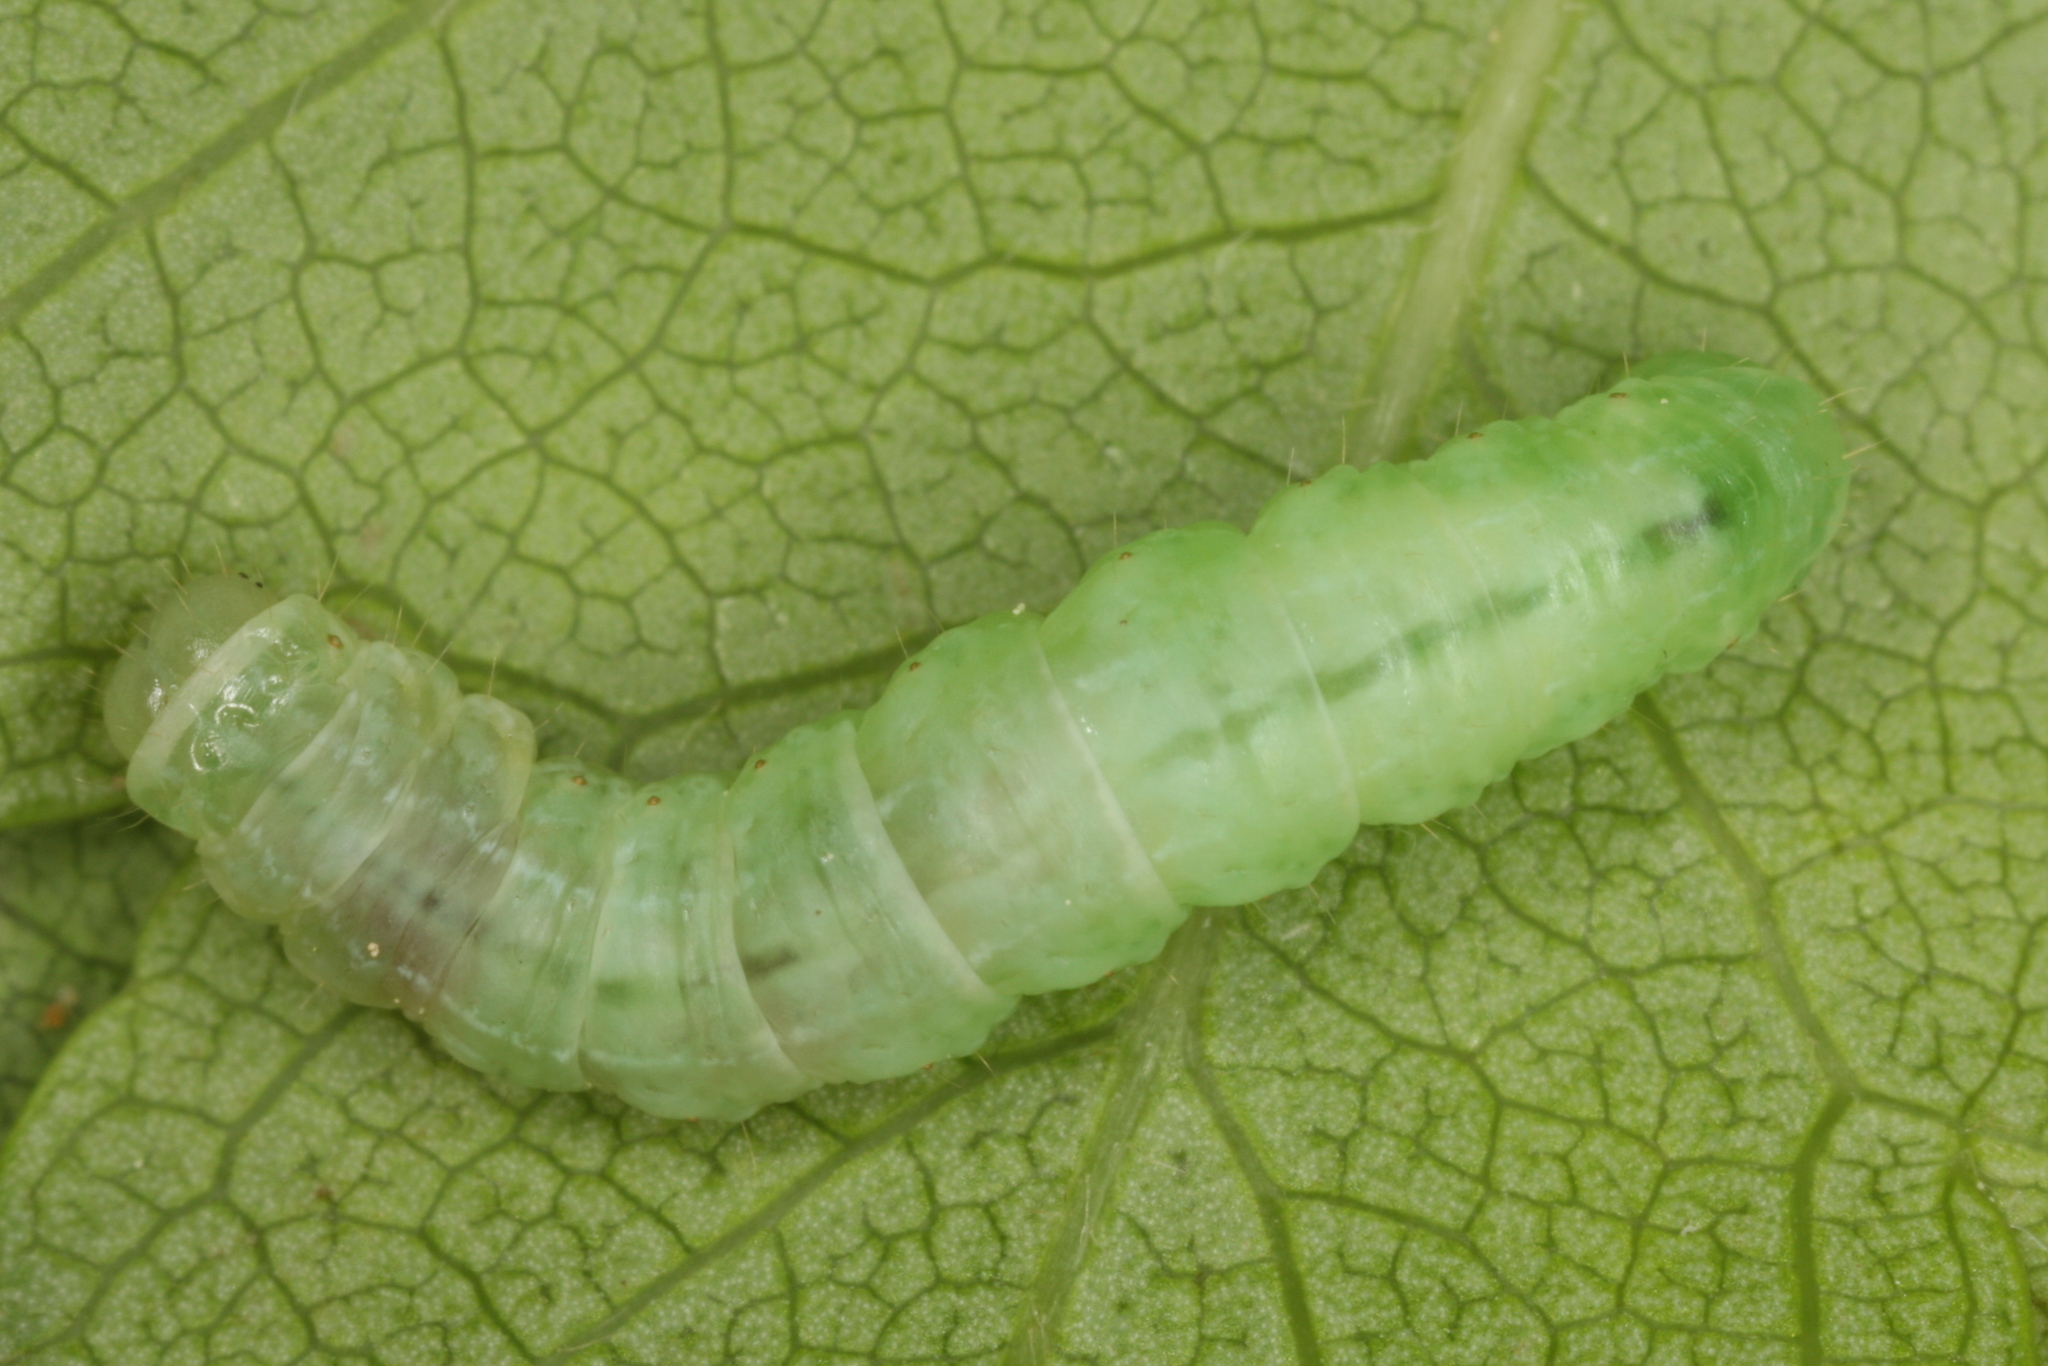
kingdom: Animalia
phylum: Arthropoda
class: Insecta
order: Lepidoptera
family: Geometridae
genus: Operophtera
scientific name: Operophtera brumata
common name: Winter moth
